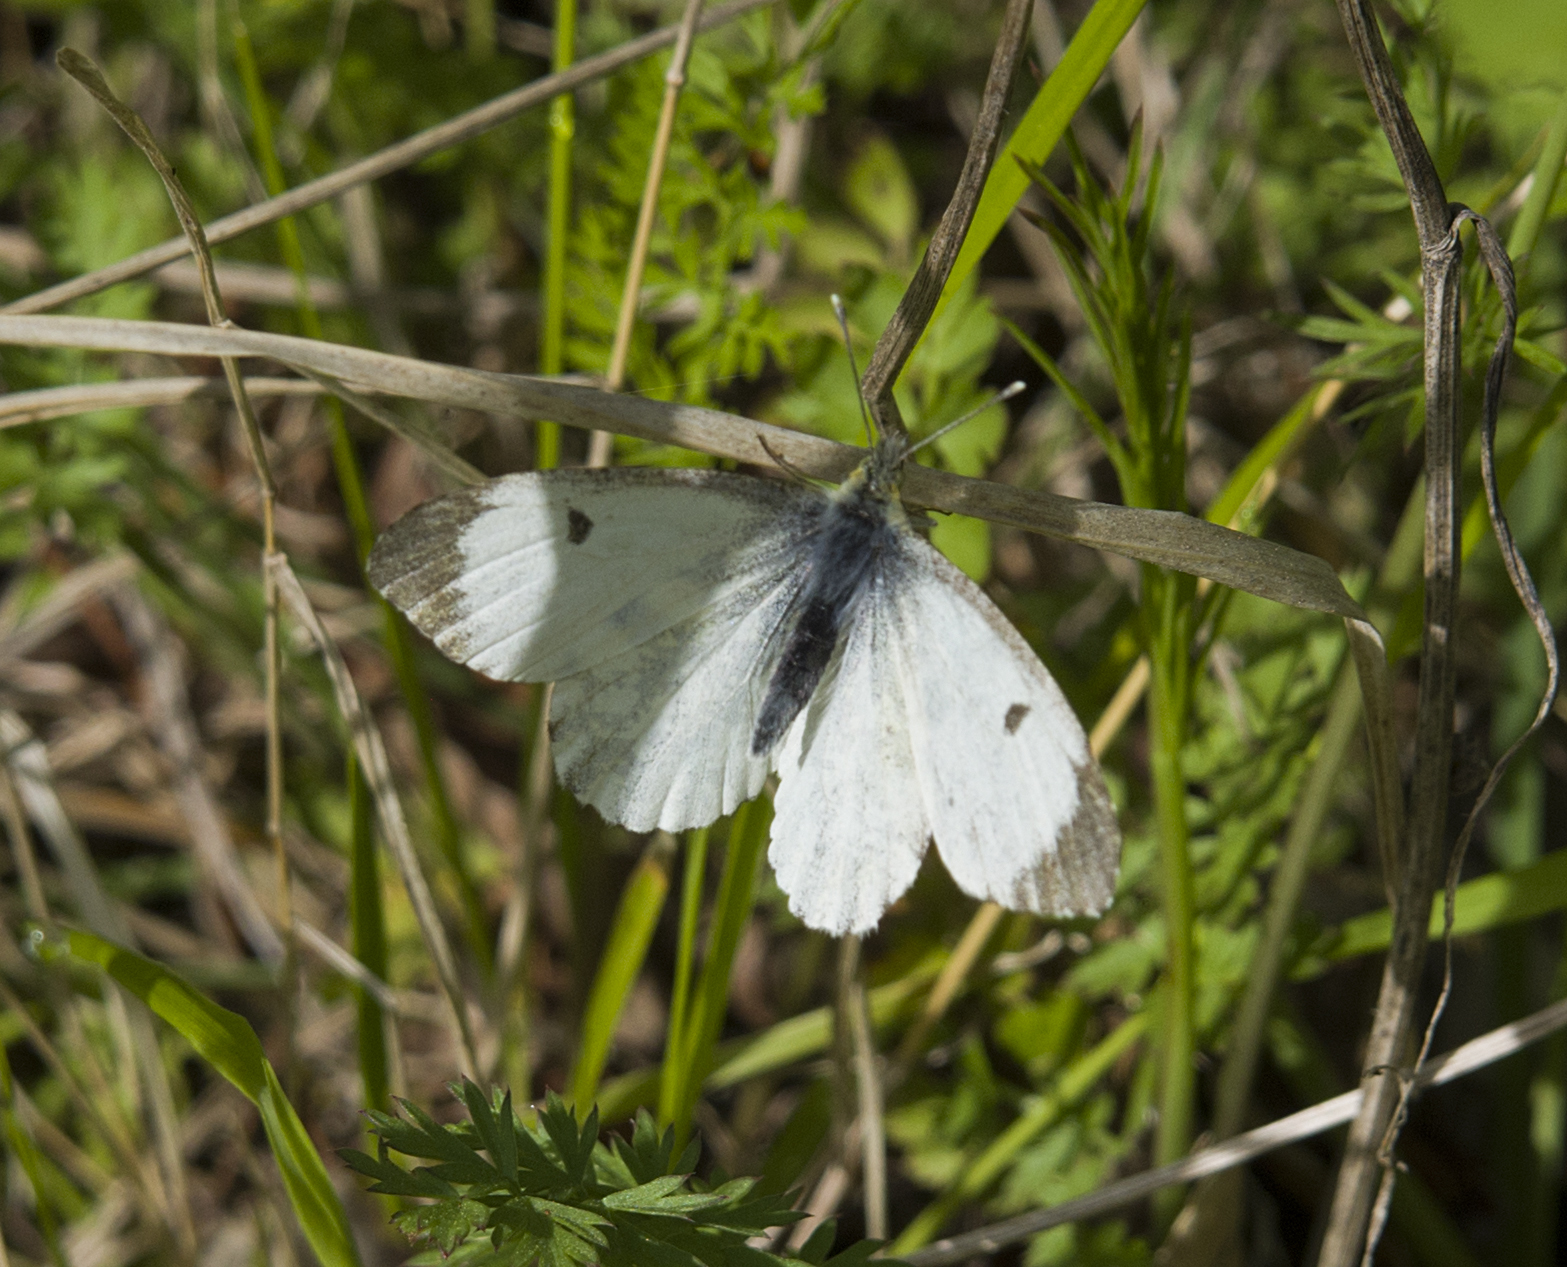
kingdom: Animalia
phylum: Arthropoda
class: Insecta
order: Lepidoptera
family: Pieridae
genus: Anthocharis
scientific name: Anthocharis cardamines
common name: Orange-tip
